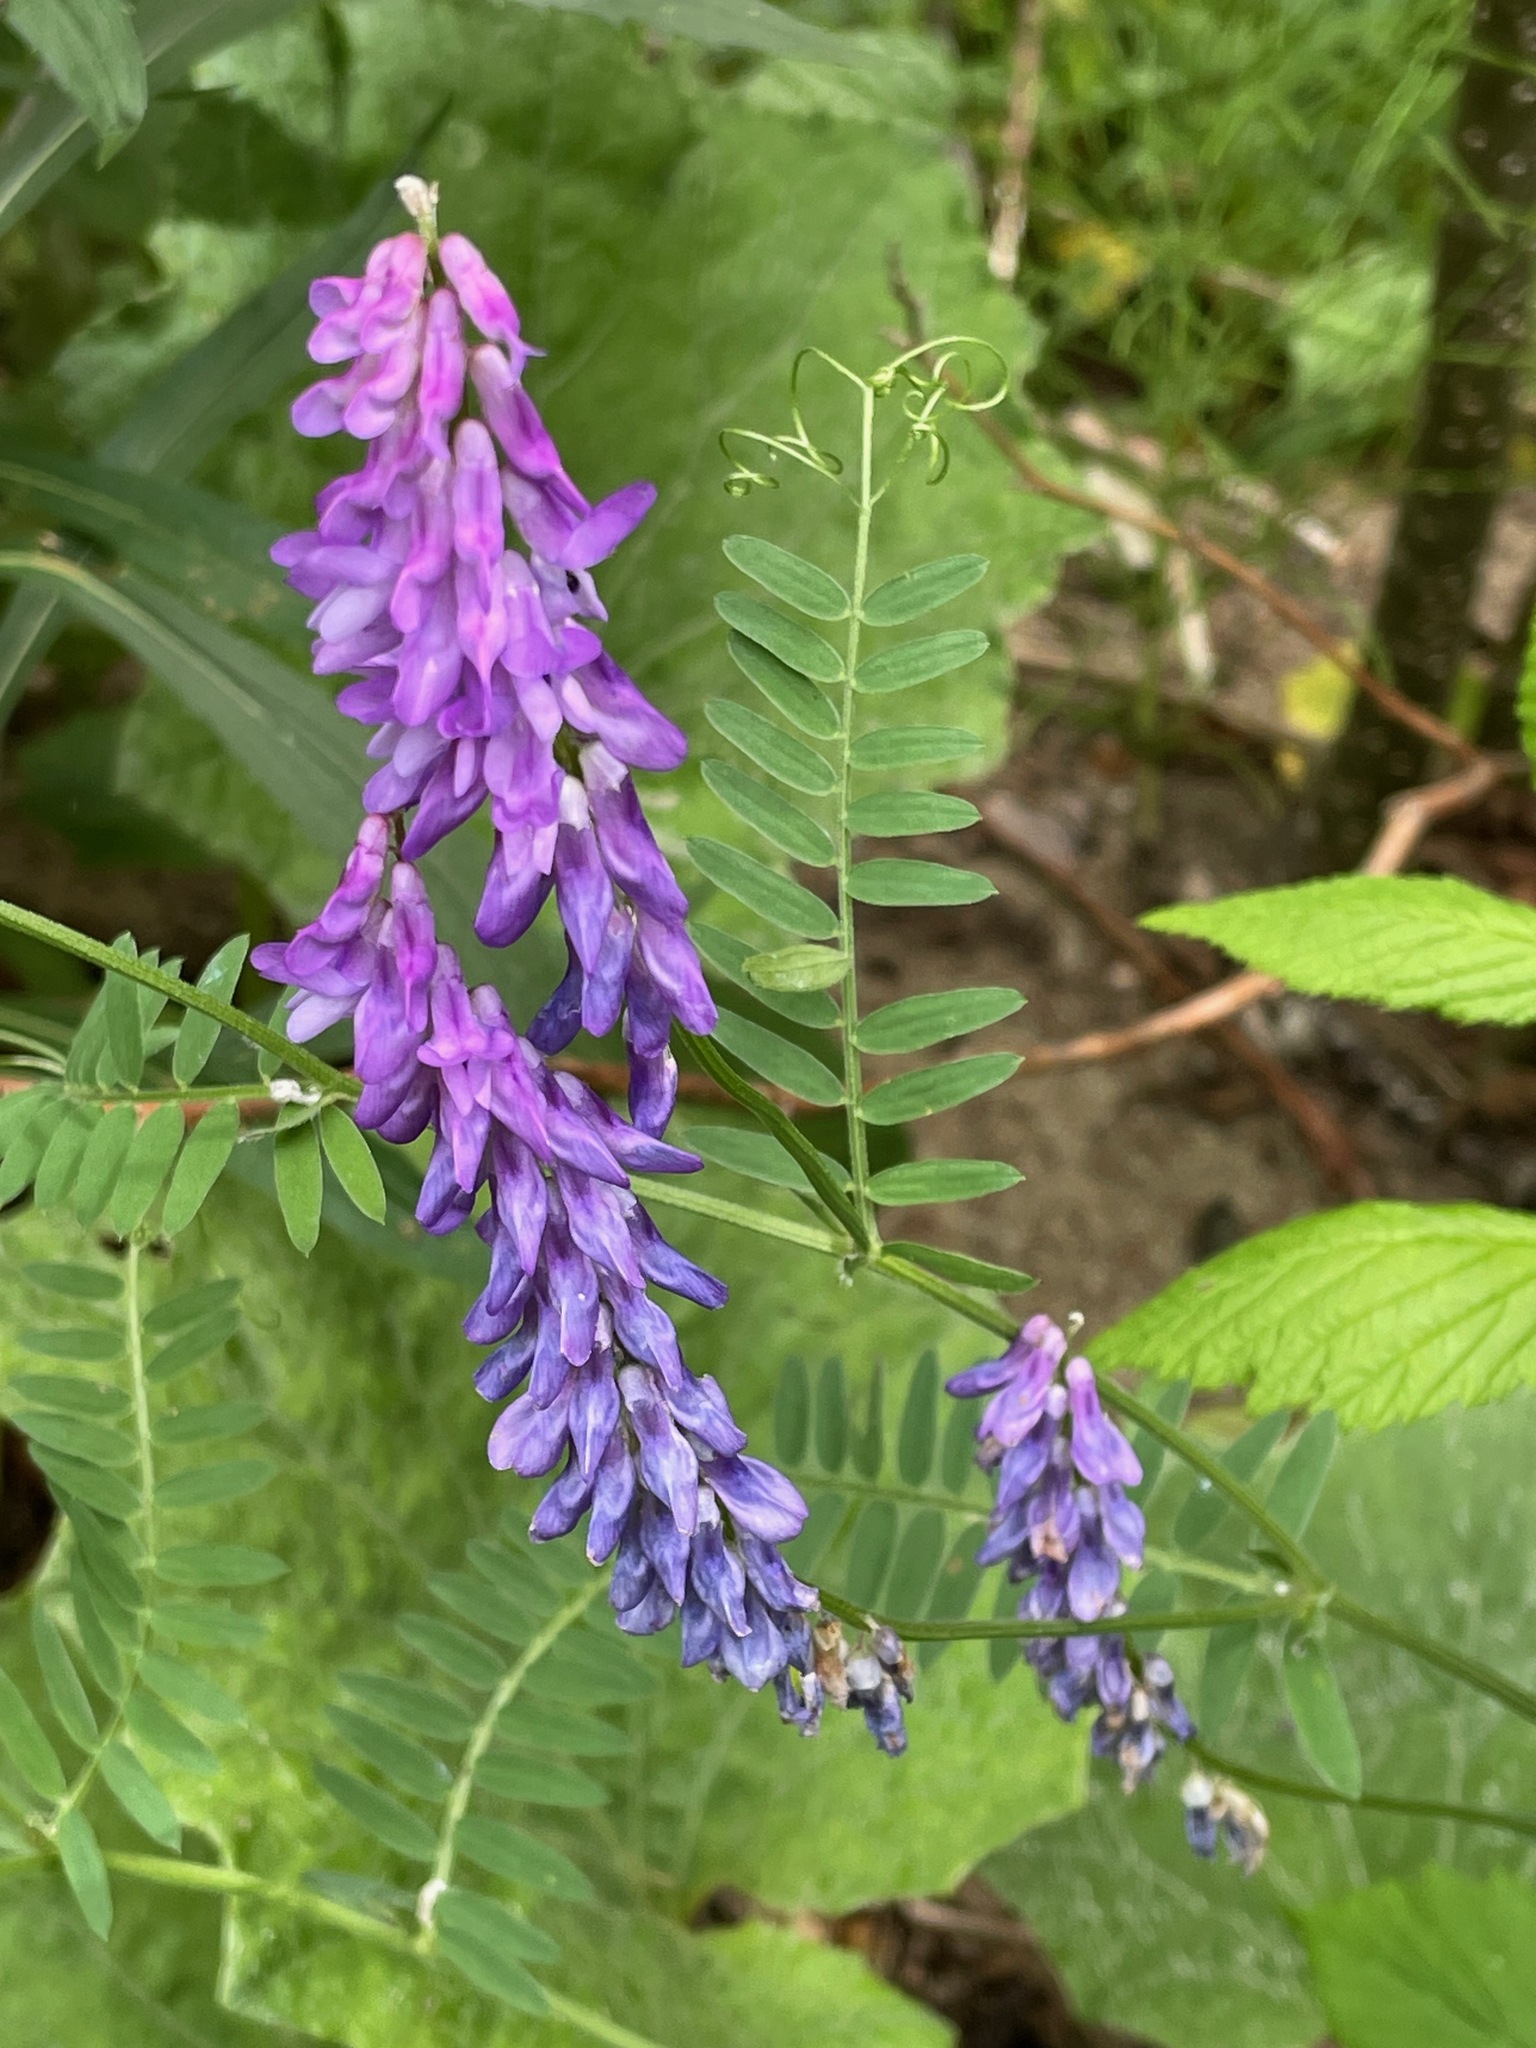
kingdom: Plantae
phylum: Tracheophyta
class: Magnoliopsida
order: Fabales
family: Fabaceae
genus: Vicia
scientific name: Vicia cracca
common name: Bird vetch
